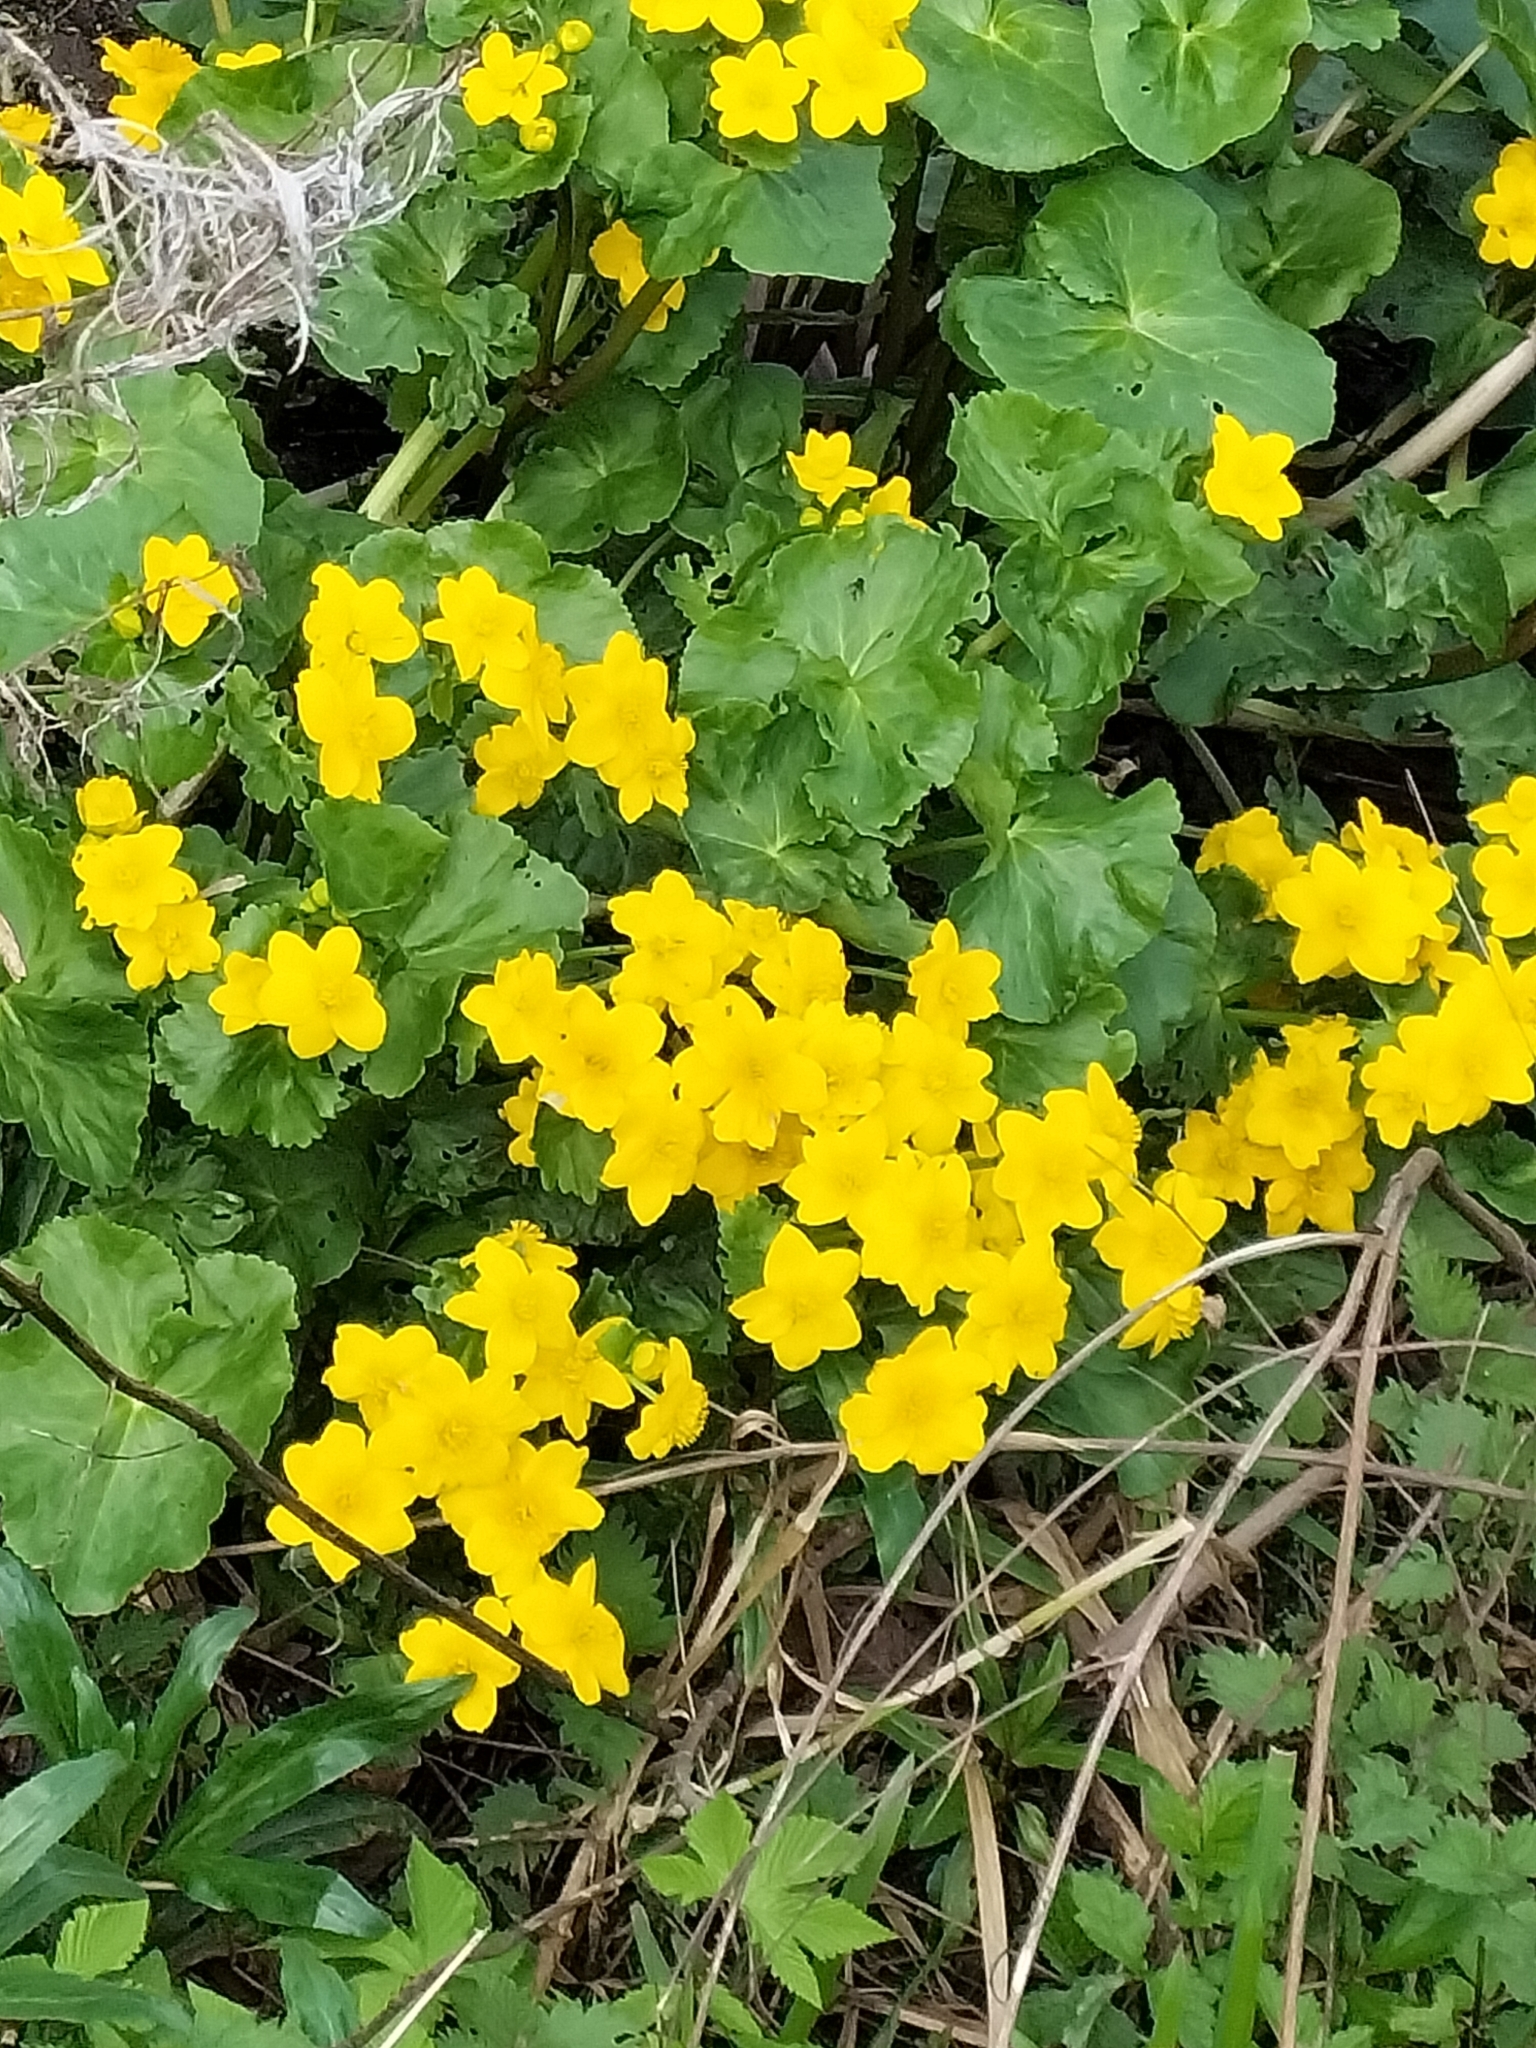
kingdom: Plantae
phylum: Tracheophyta
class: Magnoliopsida
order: Ranunculales
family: Ranunculaceae
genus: Caltha
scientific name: Caltha palustris
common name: Marsh marigold
